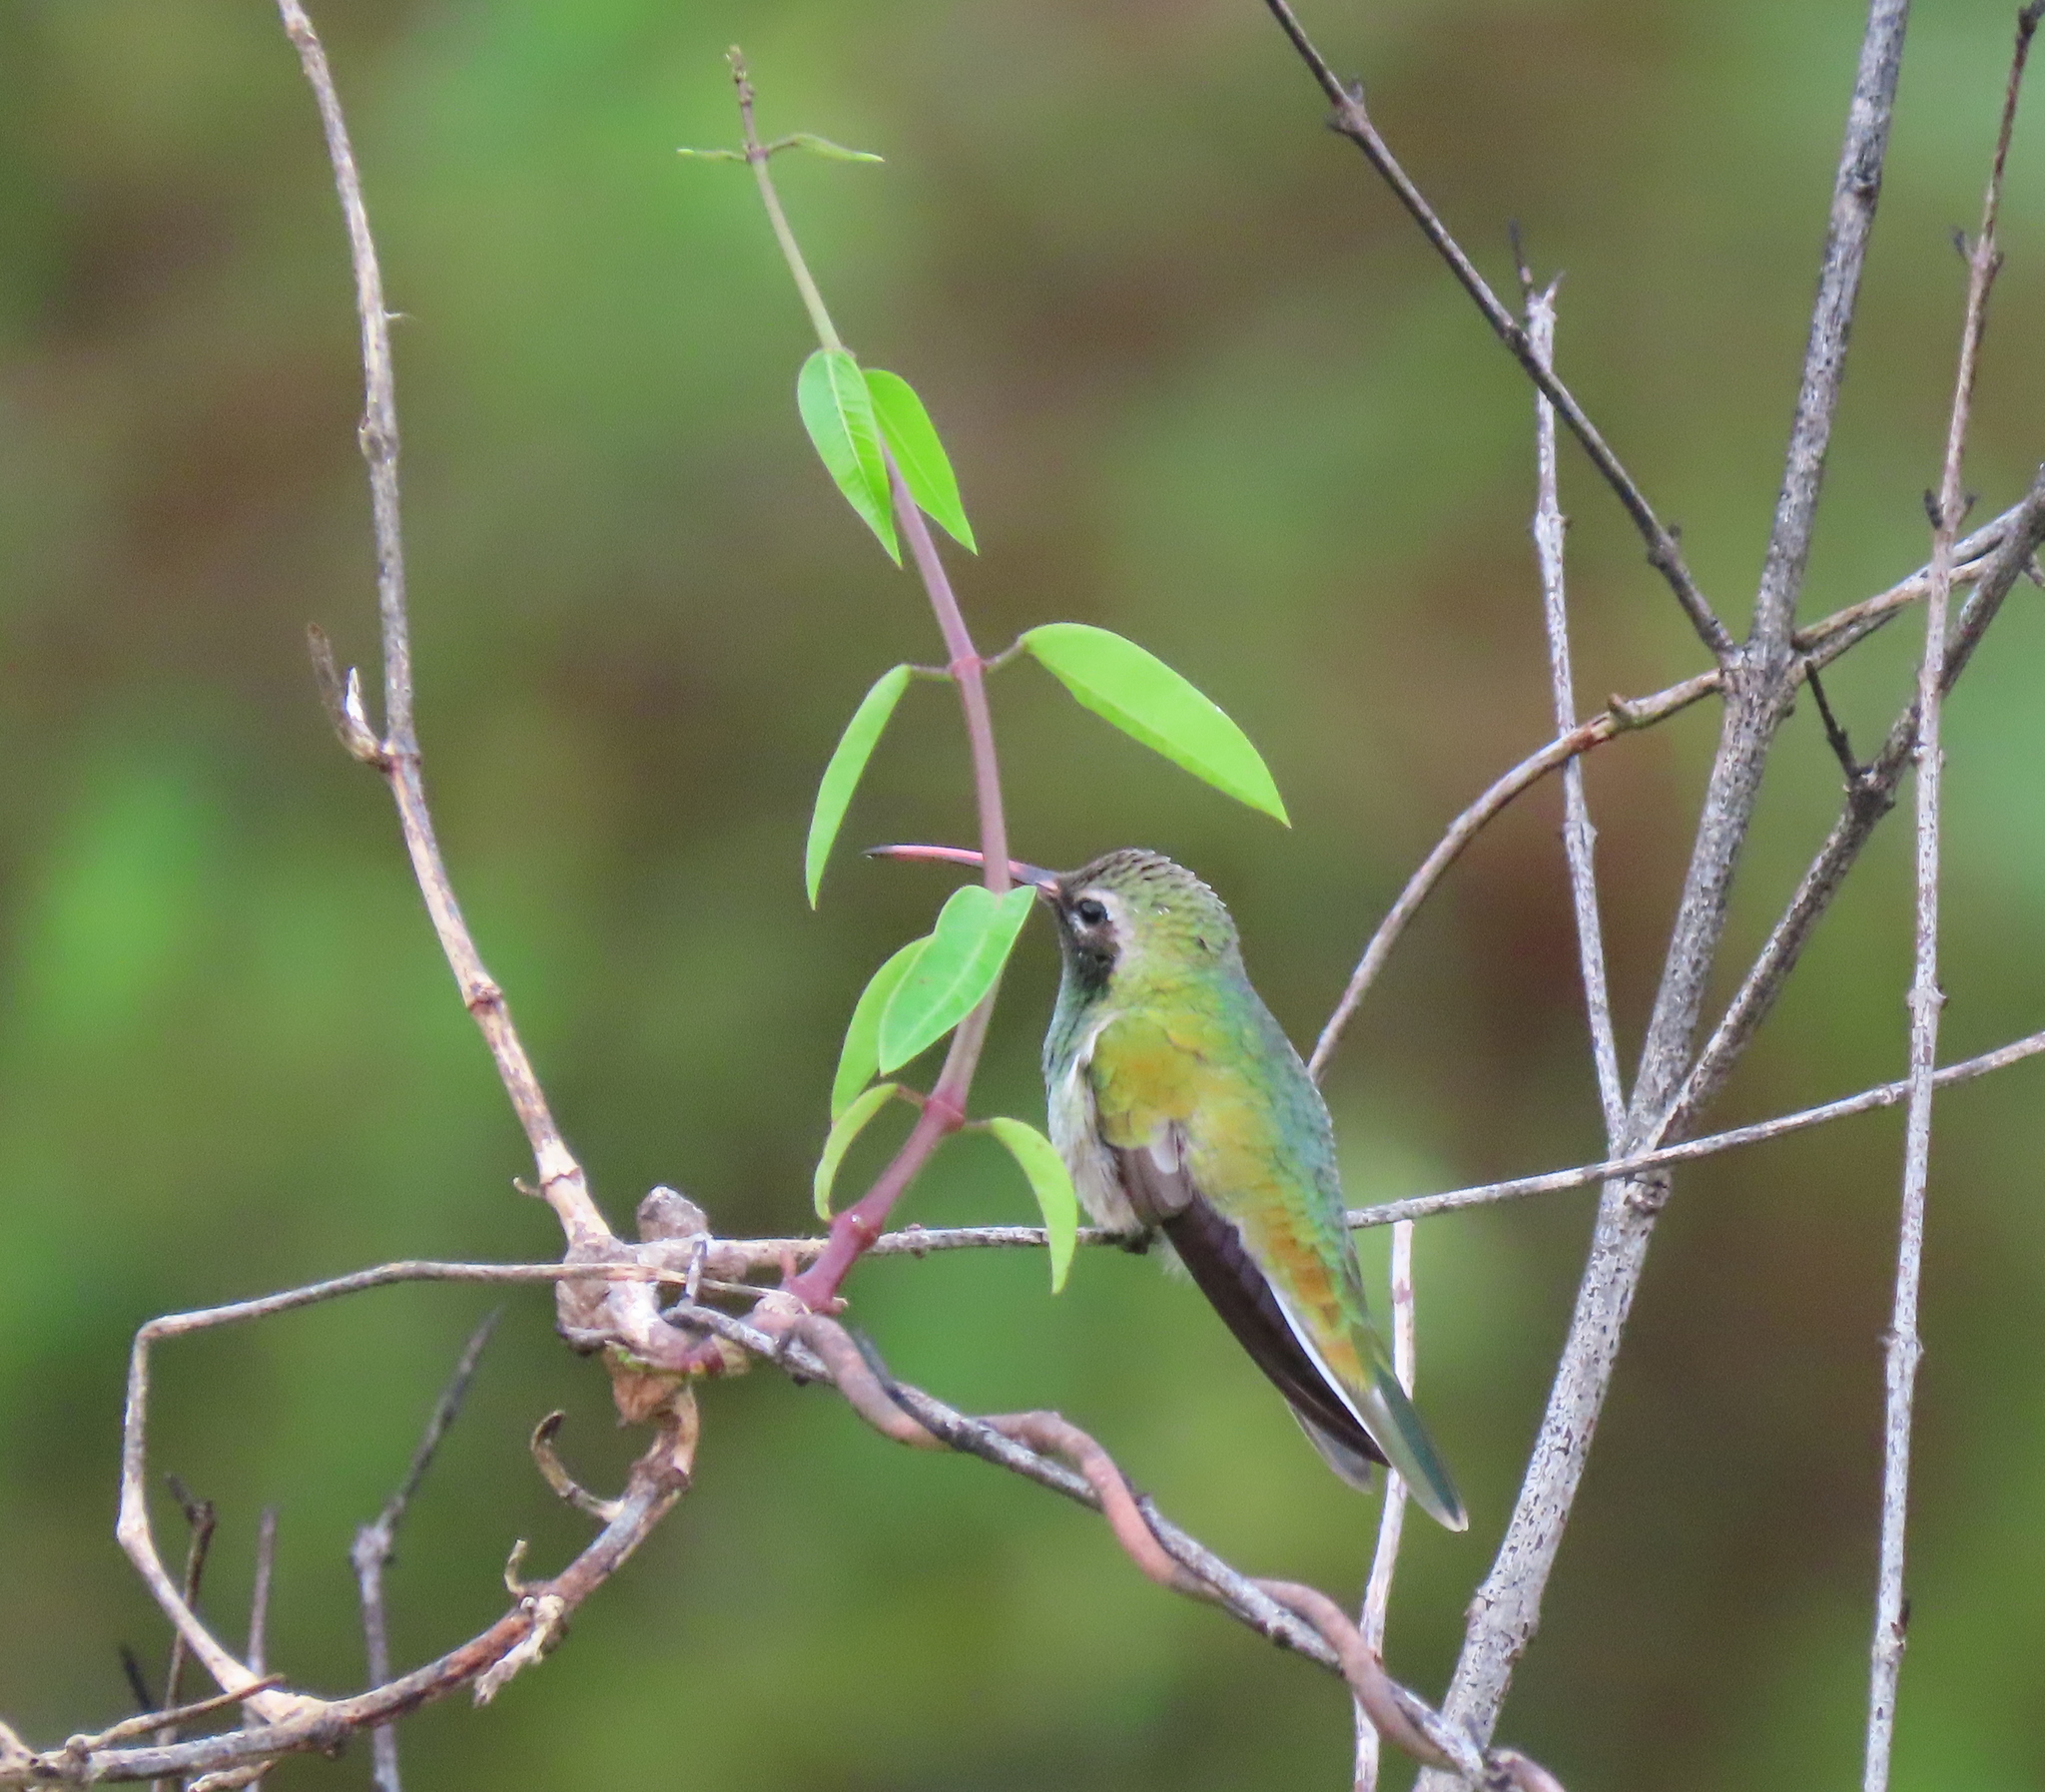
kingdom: Animalia
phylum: Chordata
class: Aves
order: Apodiformes
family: Trochilidae
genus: Polytmus
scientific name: Polytmus guainumbi
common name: White-tailed goldenthroat
